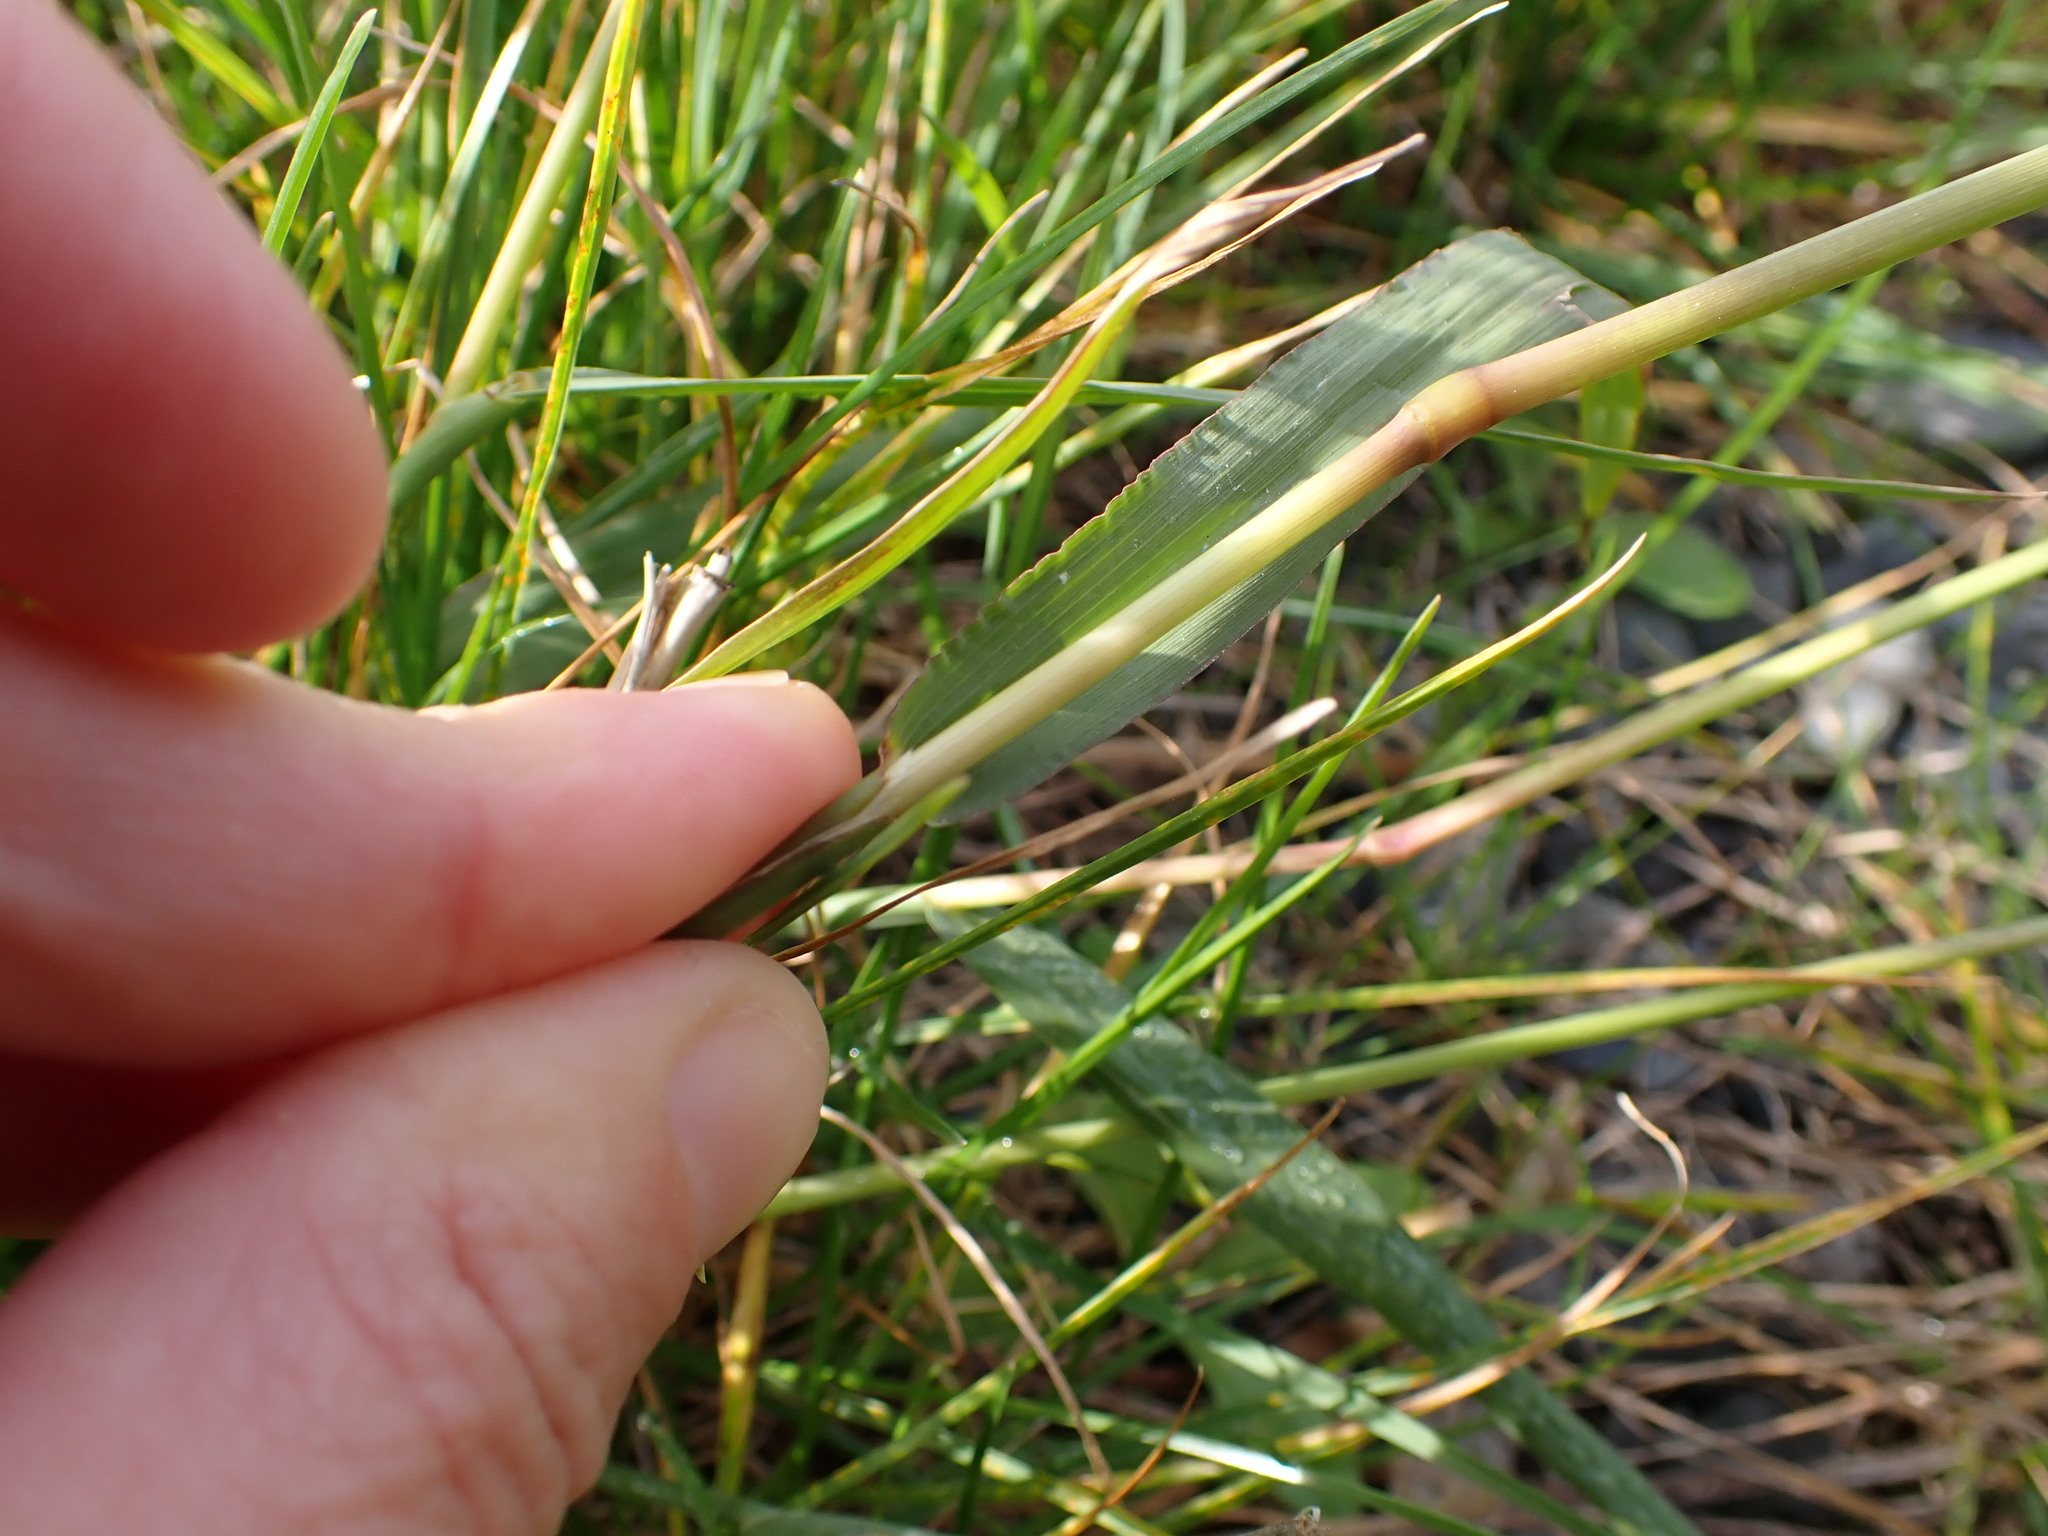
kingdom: Plantae
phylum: Tracheophyta
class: Liliopsida
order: Poales
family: Poaceae
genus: Paspalum
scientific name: Paspalum dilatatum
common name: Dallisgrass
